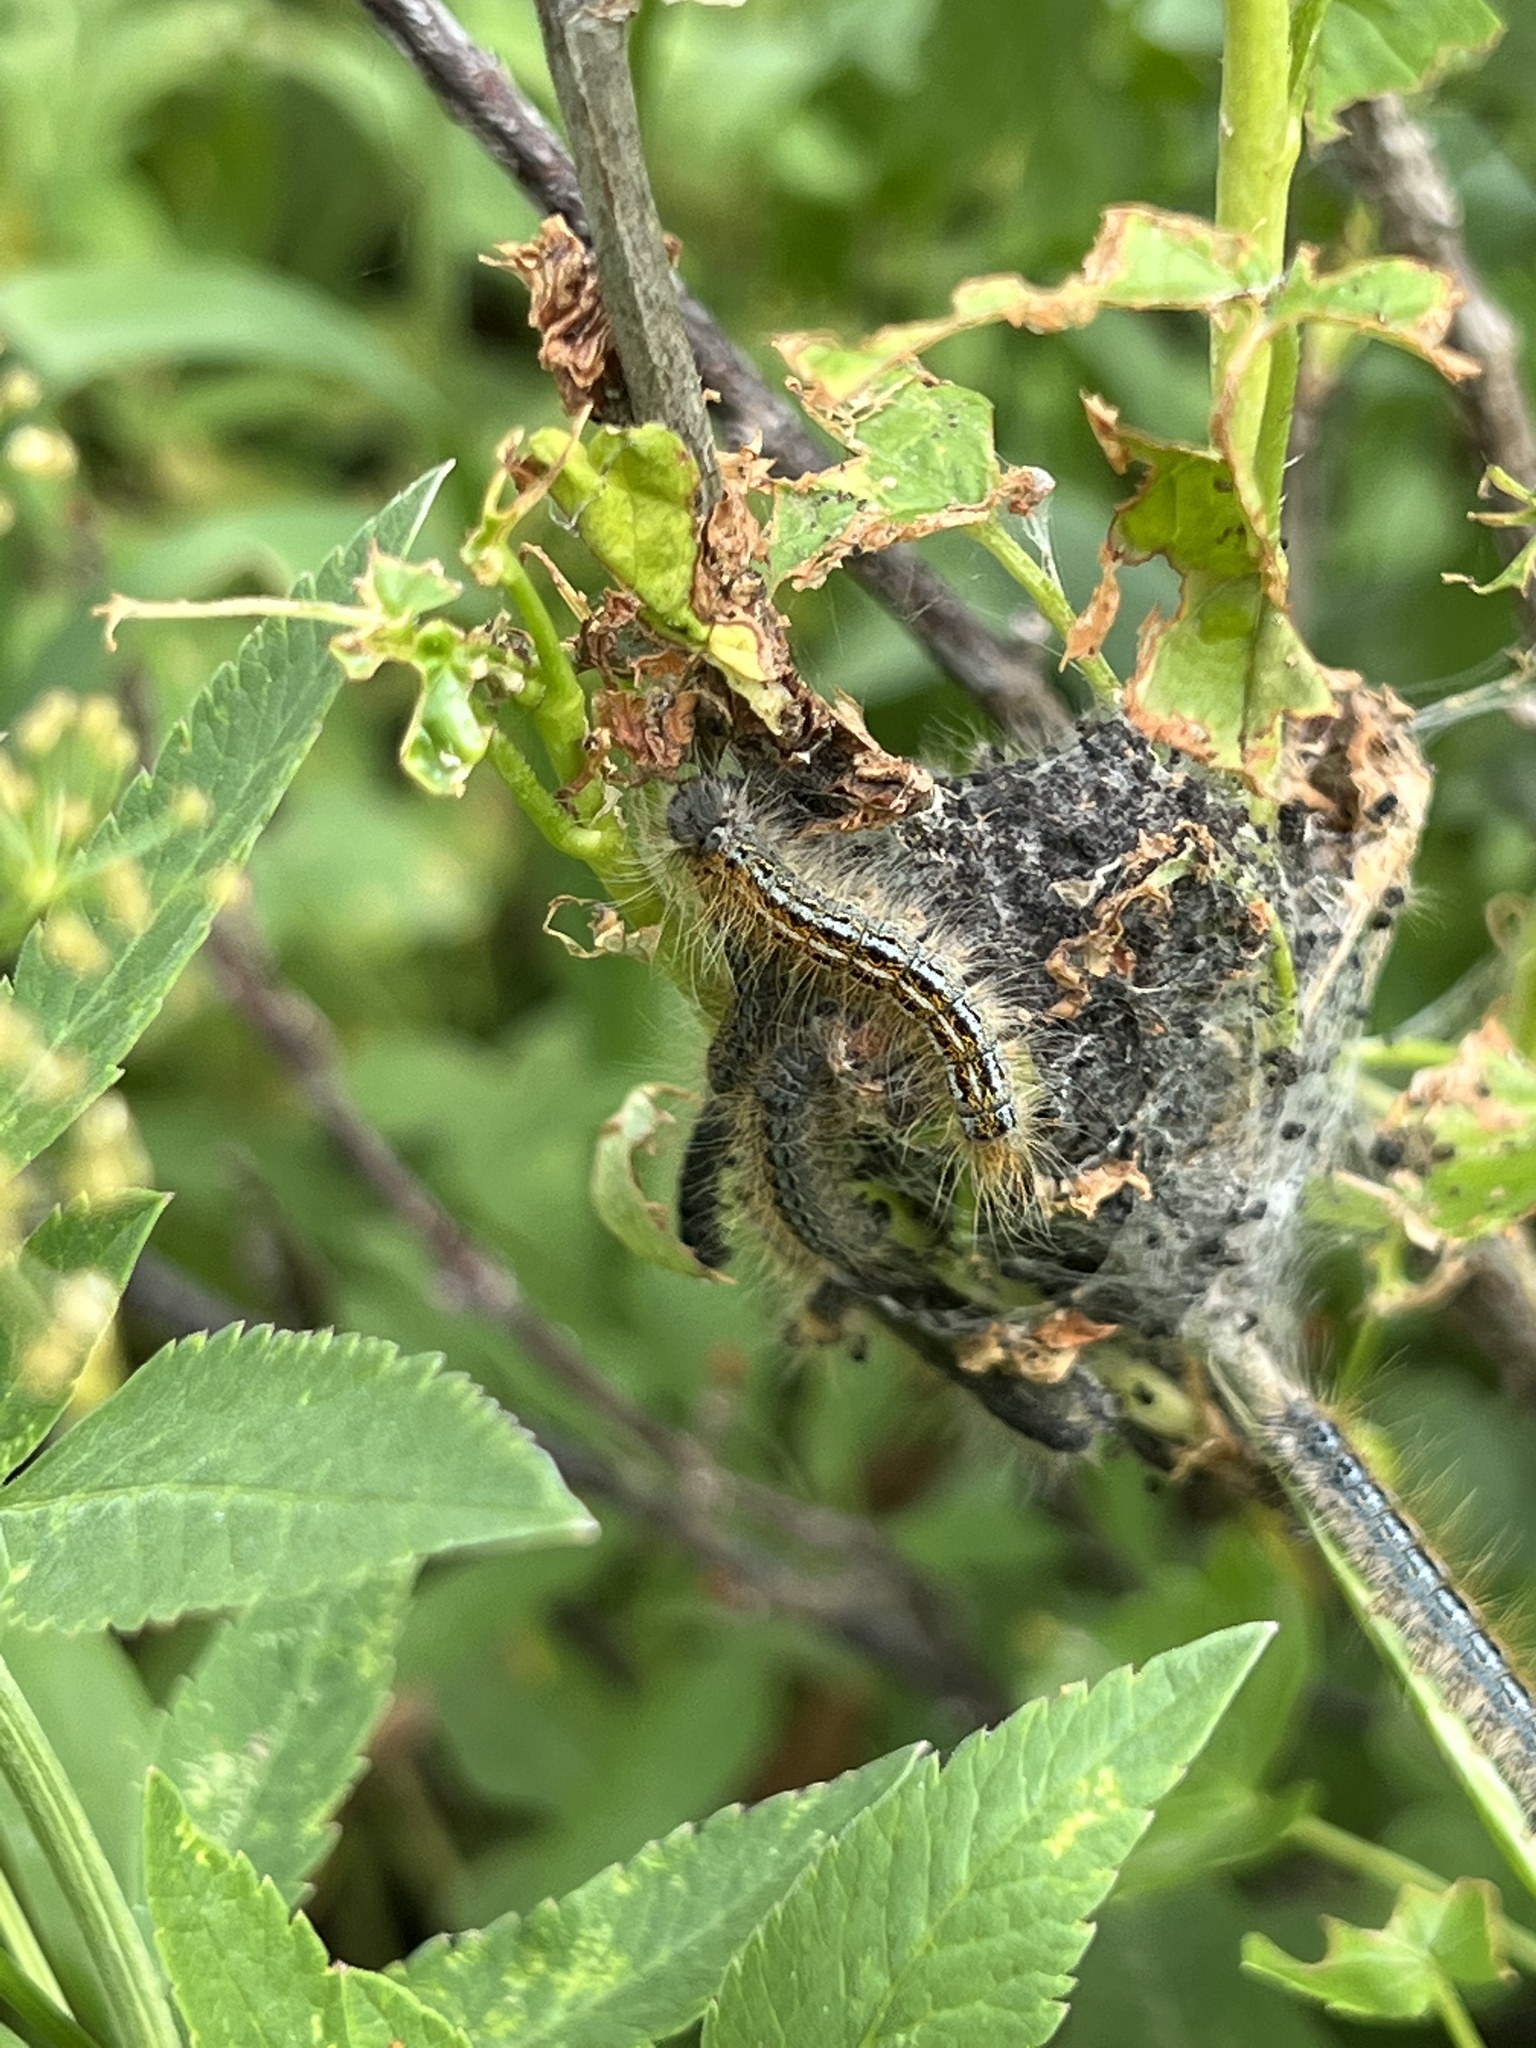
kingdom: Animalia
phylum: Arthropoda
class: Insecta
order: Lepidoptera
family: Lasiocampidae
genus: Malacosoma
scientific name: Malacosoma californica
